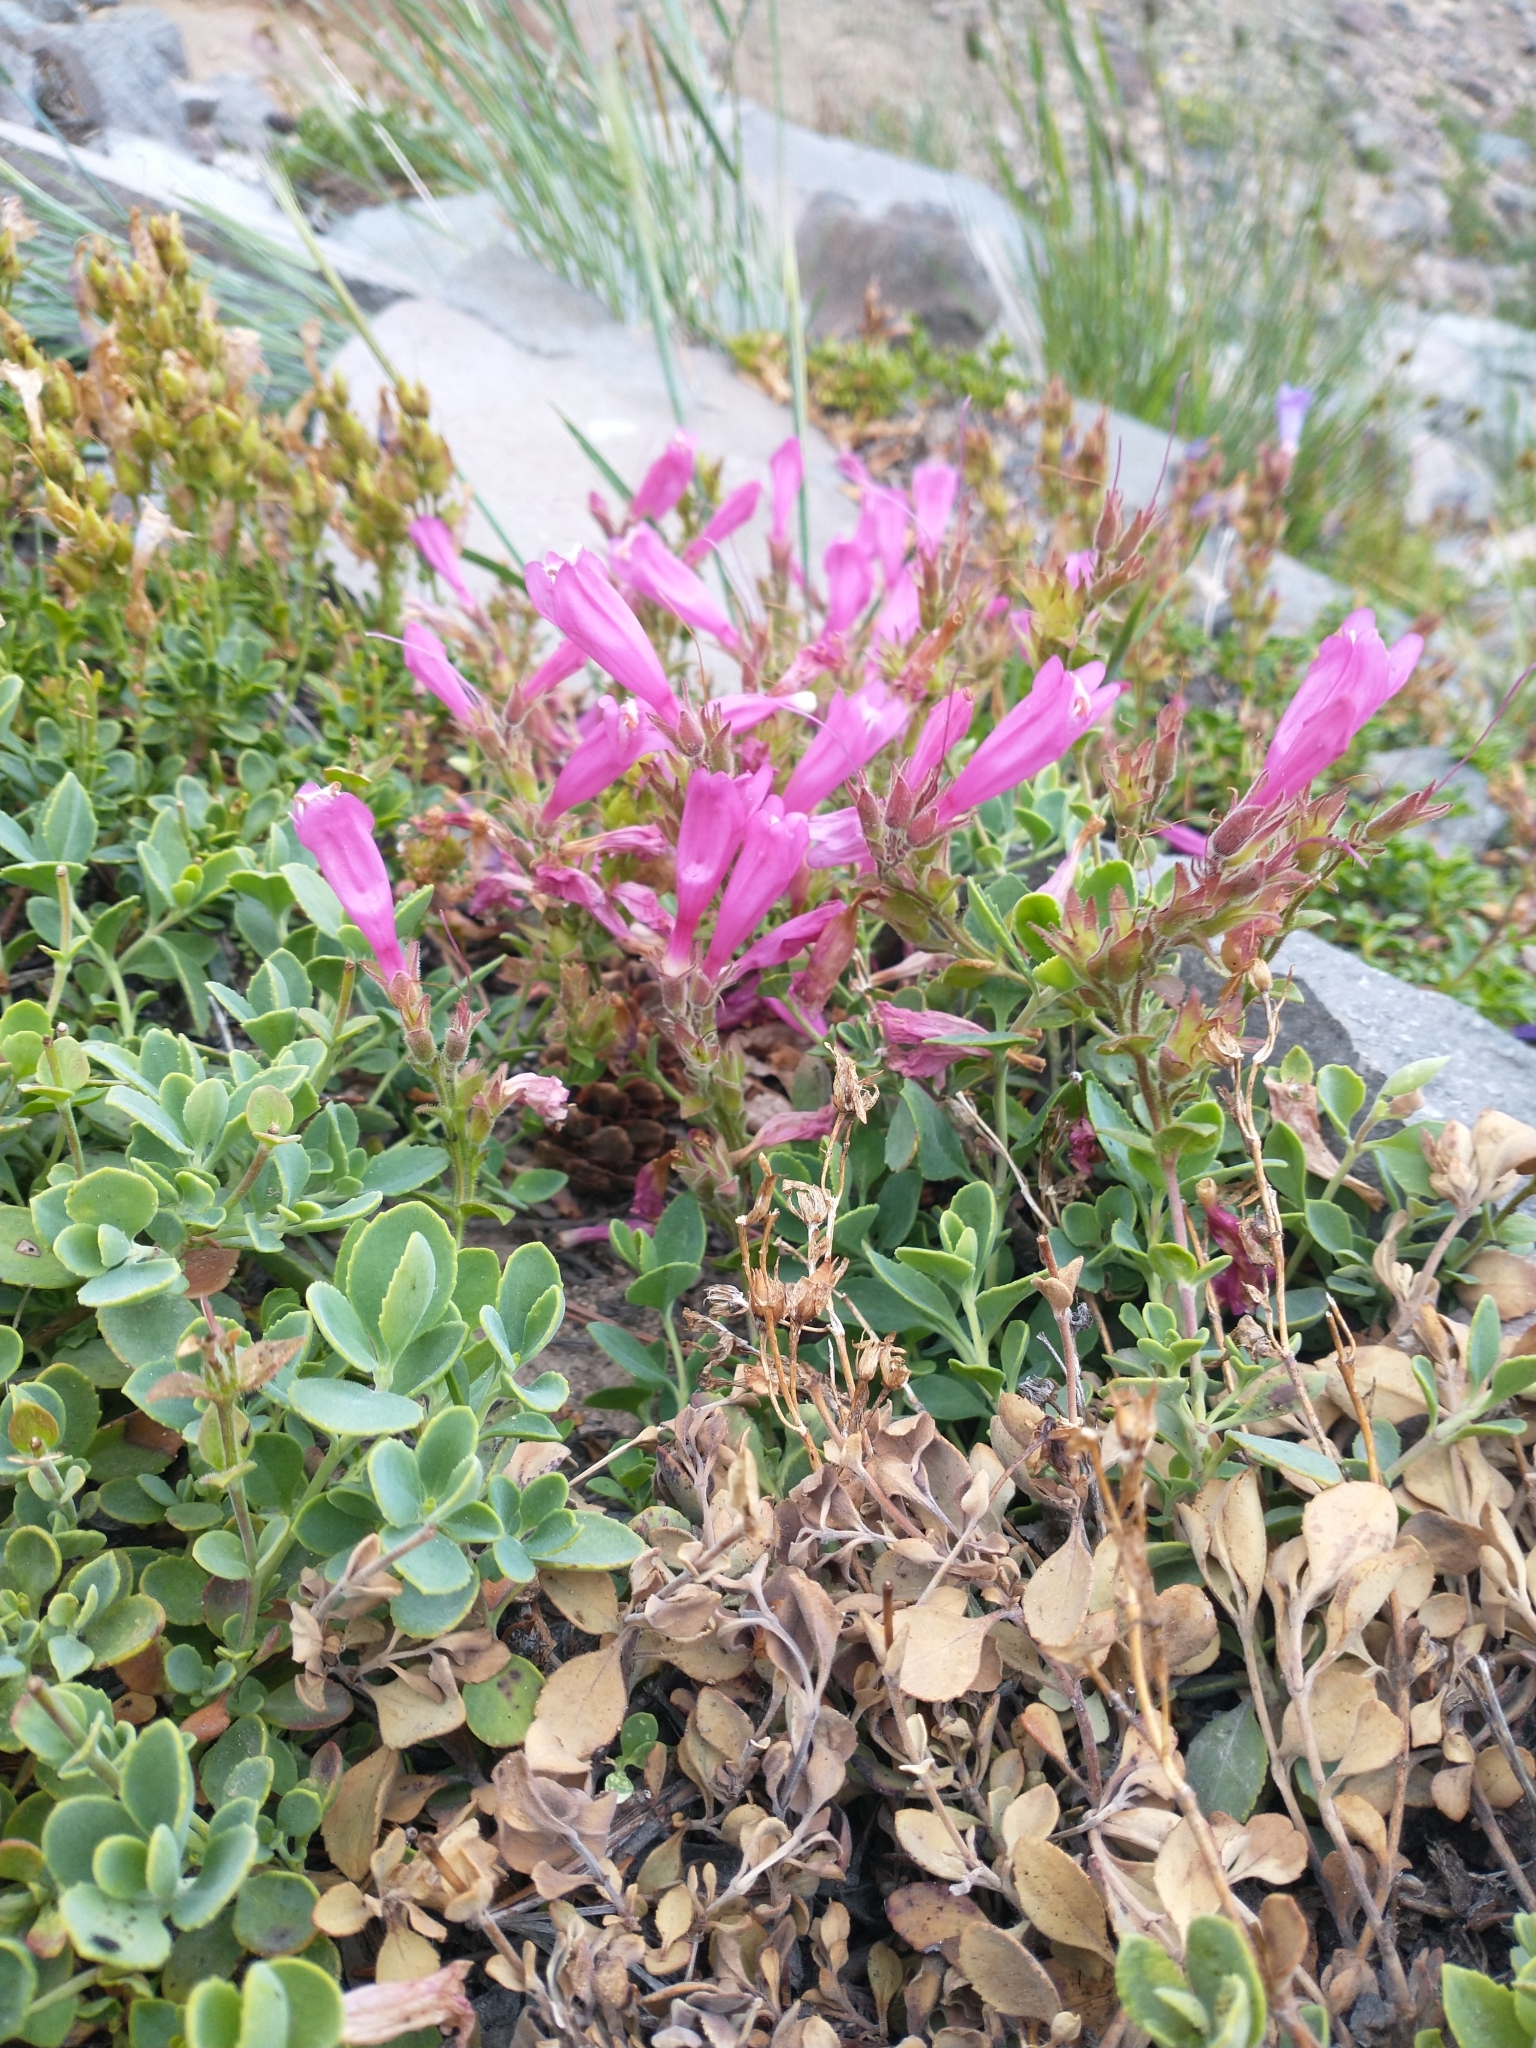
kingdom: Plantae
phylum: Tracheophyta
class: Magnoliopsida
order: Lamiales
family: Plantaginaceae
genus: Penstemon
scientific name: Penstemon rupicola
